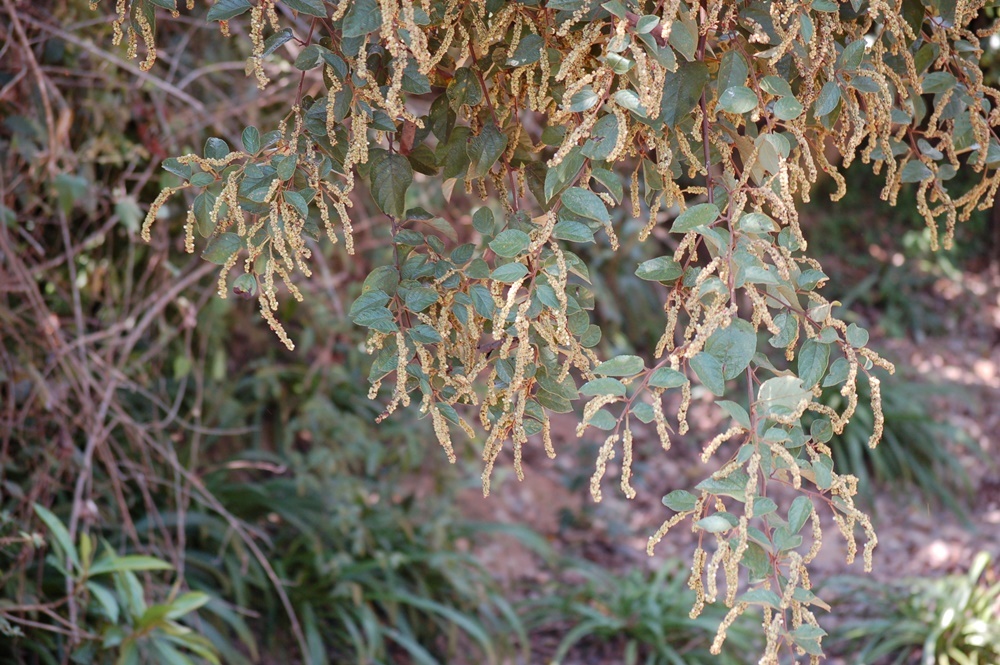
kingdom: Plantae
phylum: Tracheophyta
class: Magnoliopsida
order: Boraginales
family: Cordiaceae
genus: Varronia
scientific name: Varronia spinescens
